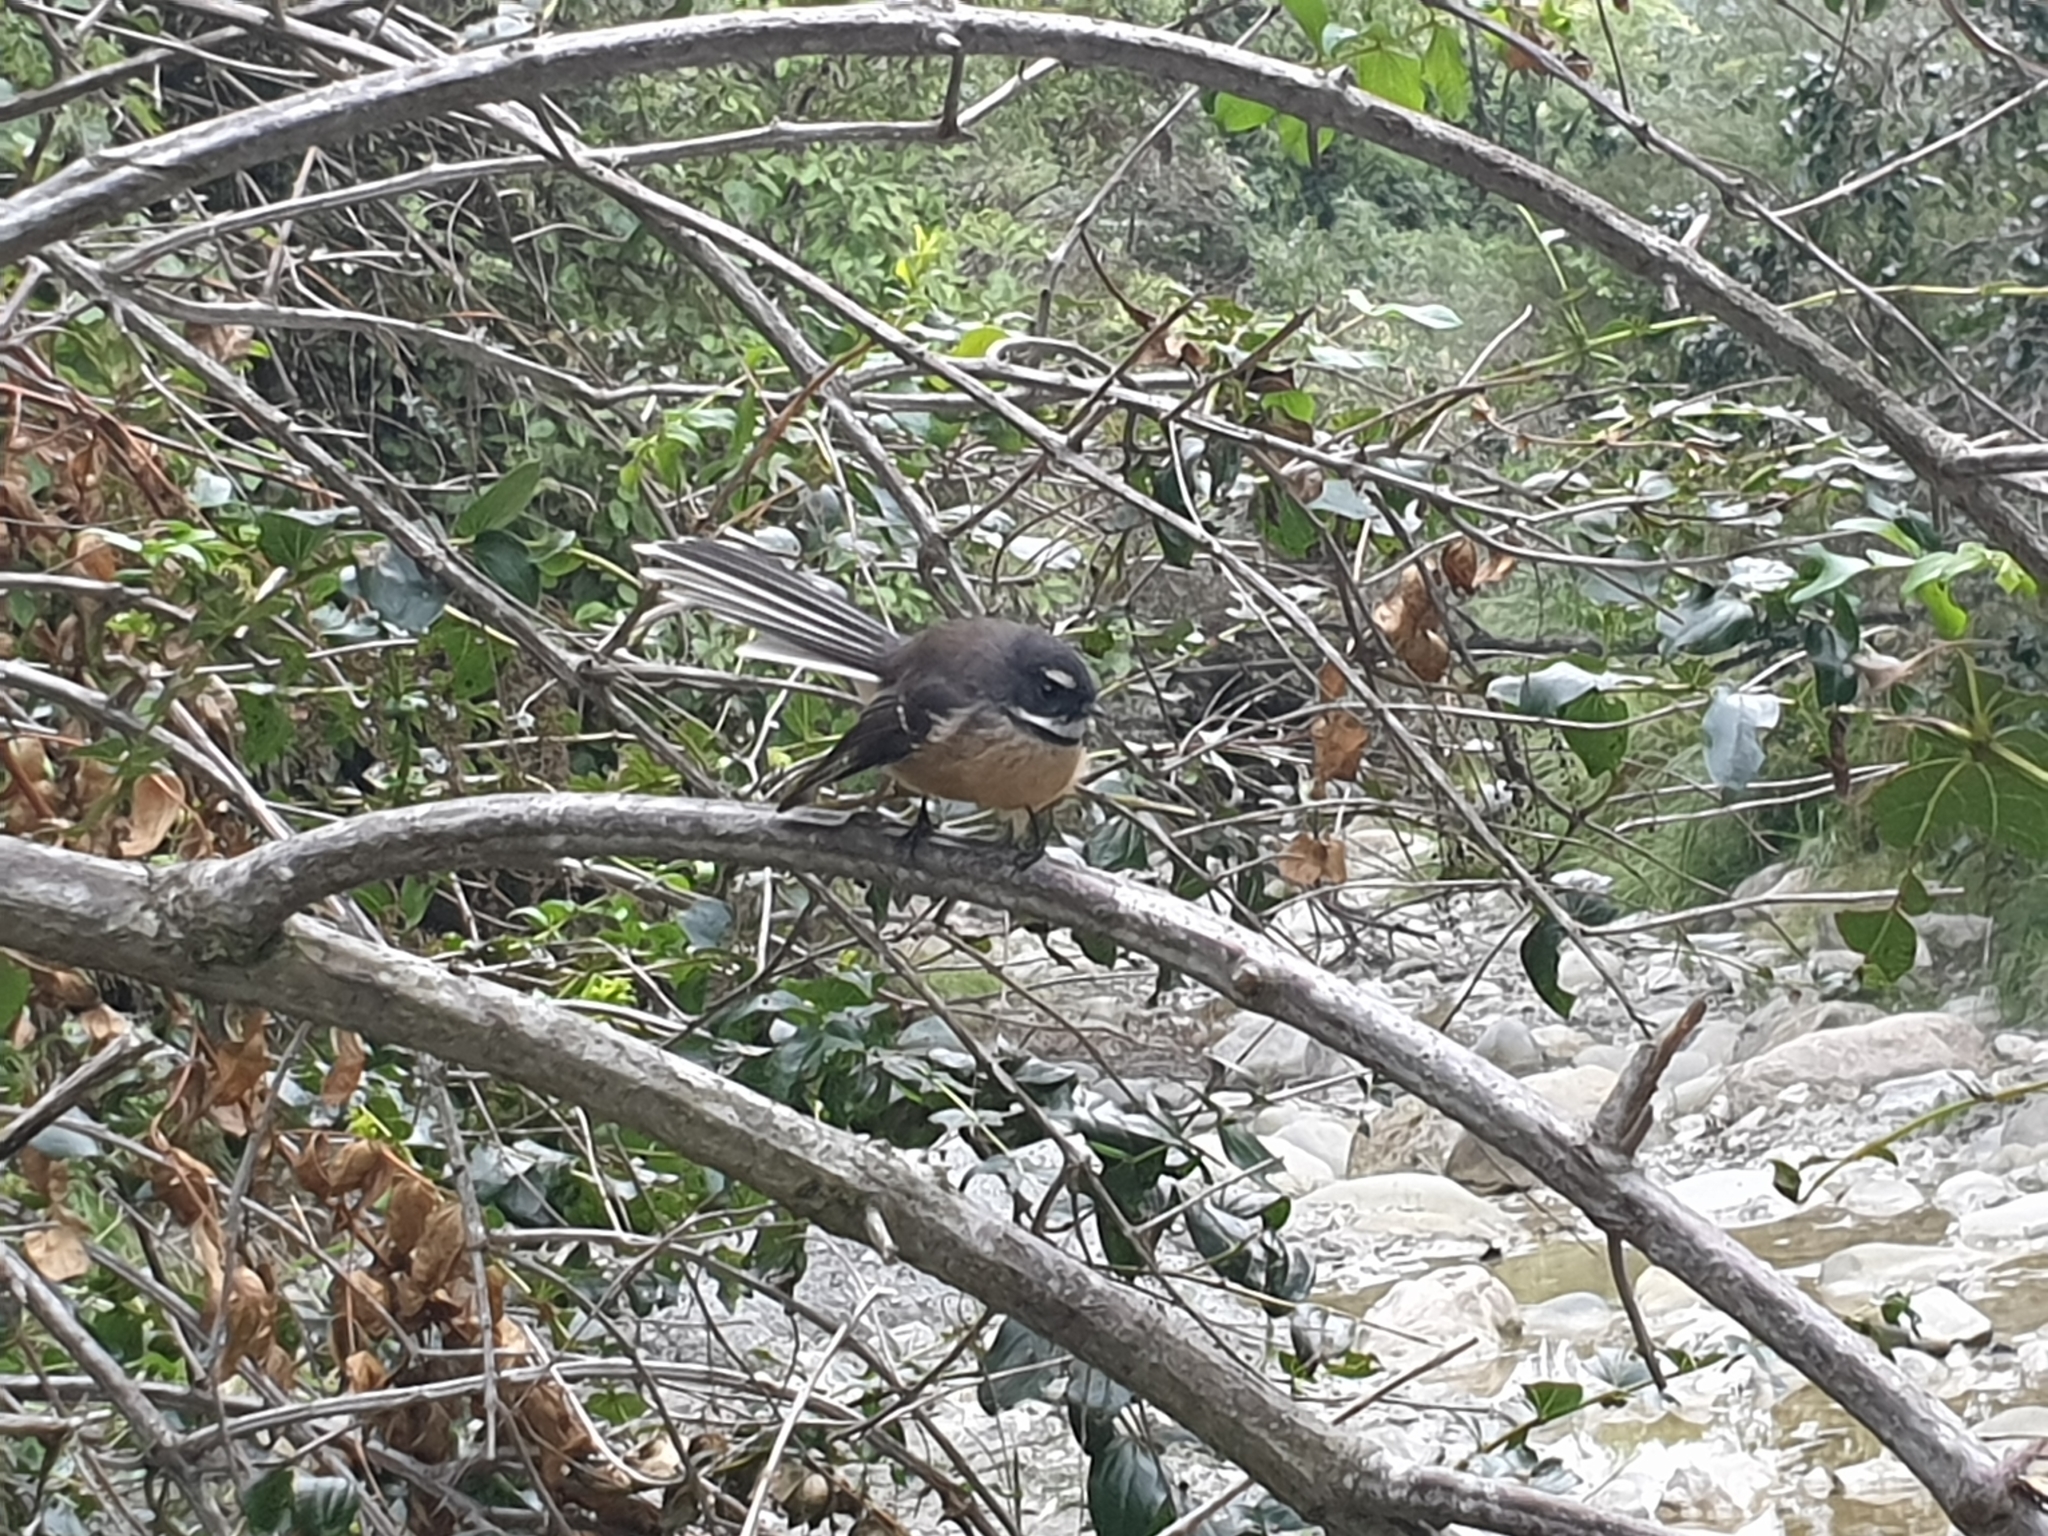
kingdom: Animalia
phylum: Chordata
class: Aves
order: Passeriformes
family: Rhipiduridae
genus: Rhipidura
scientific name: Rhipidura fuliginosa
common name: New zealand fantail
